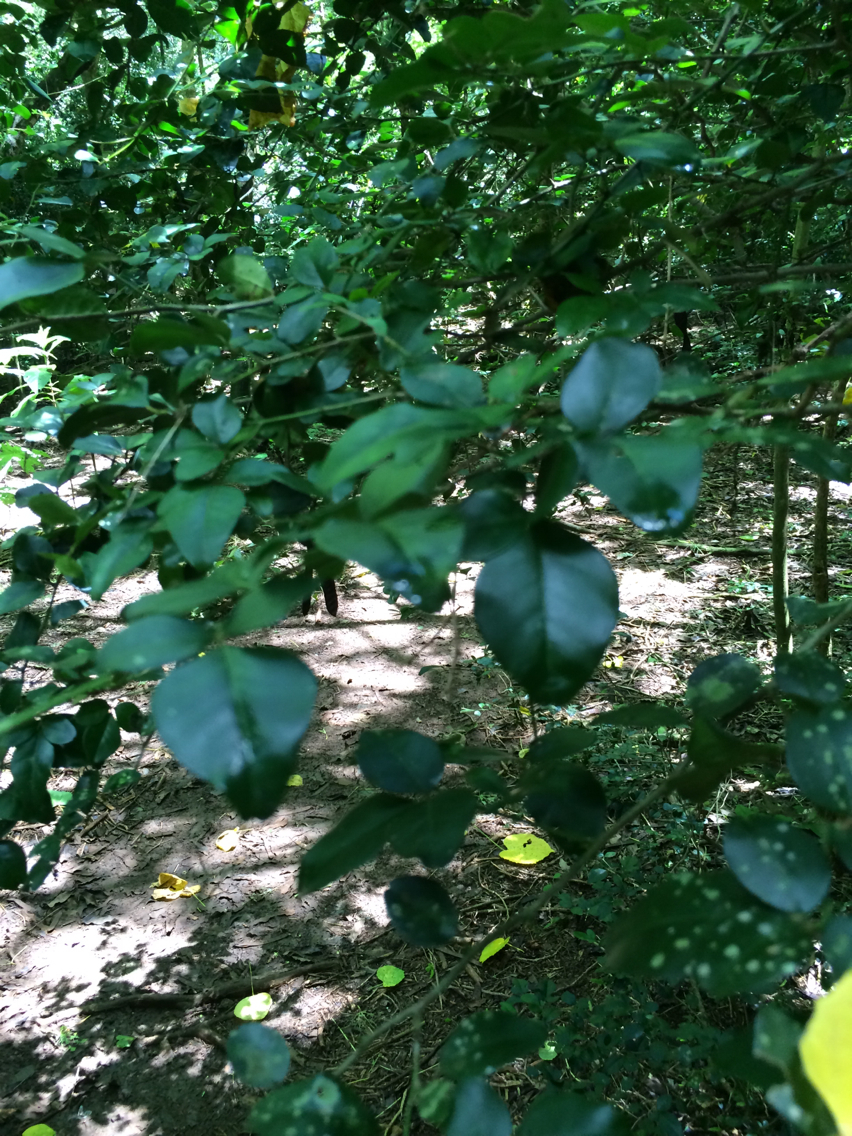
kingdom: Plantae
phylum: Tracheophyta
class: Magnoliopsida
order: Sapindales
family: Rutaceae
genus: Triphasia
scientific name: Triphasia trifolia
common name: Limeberry
